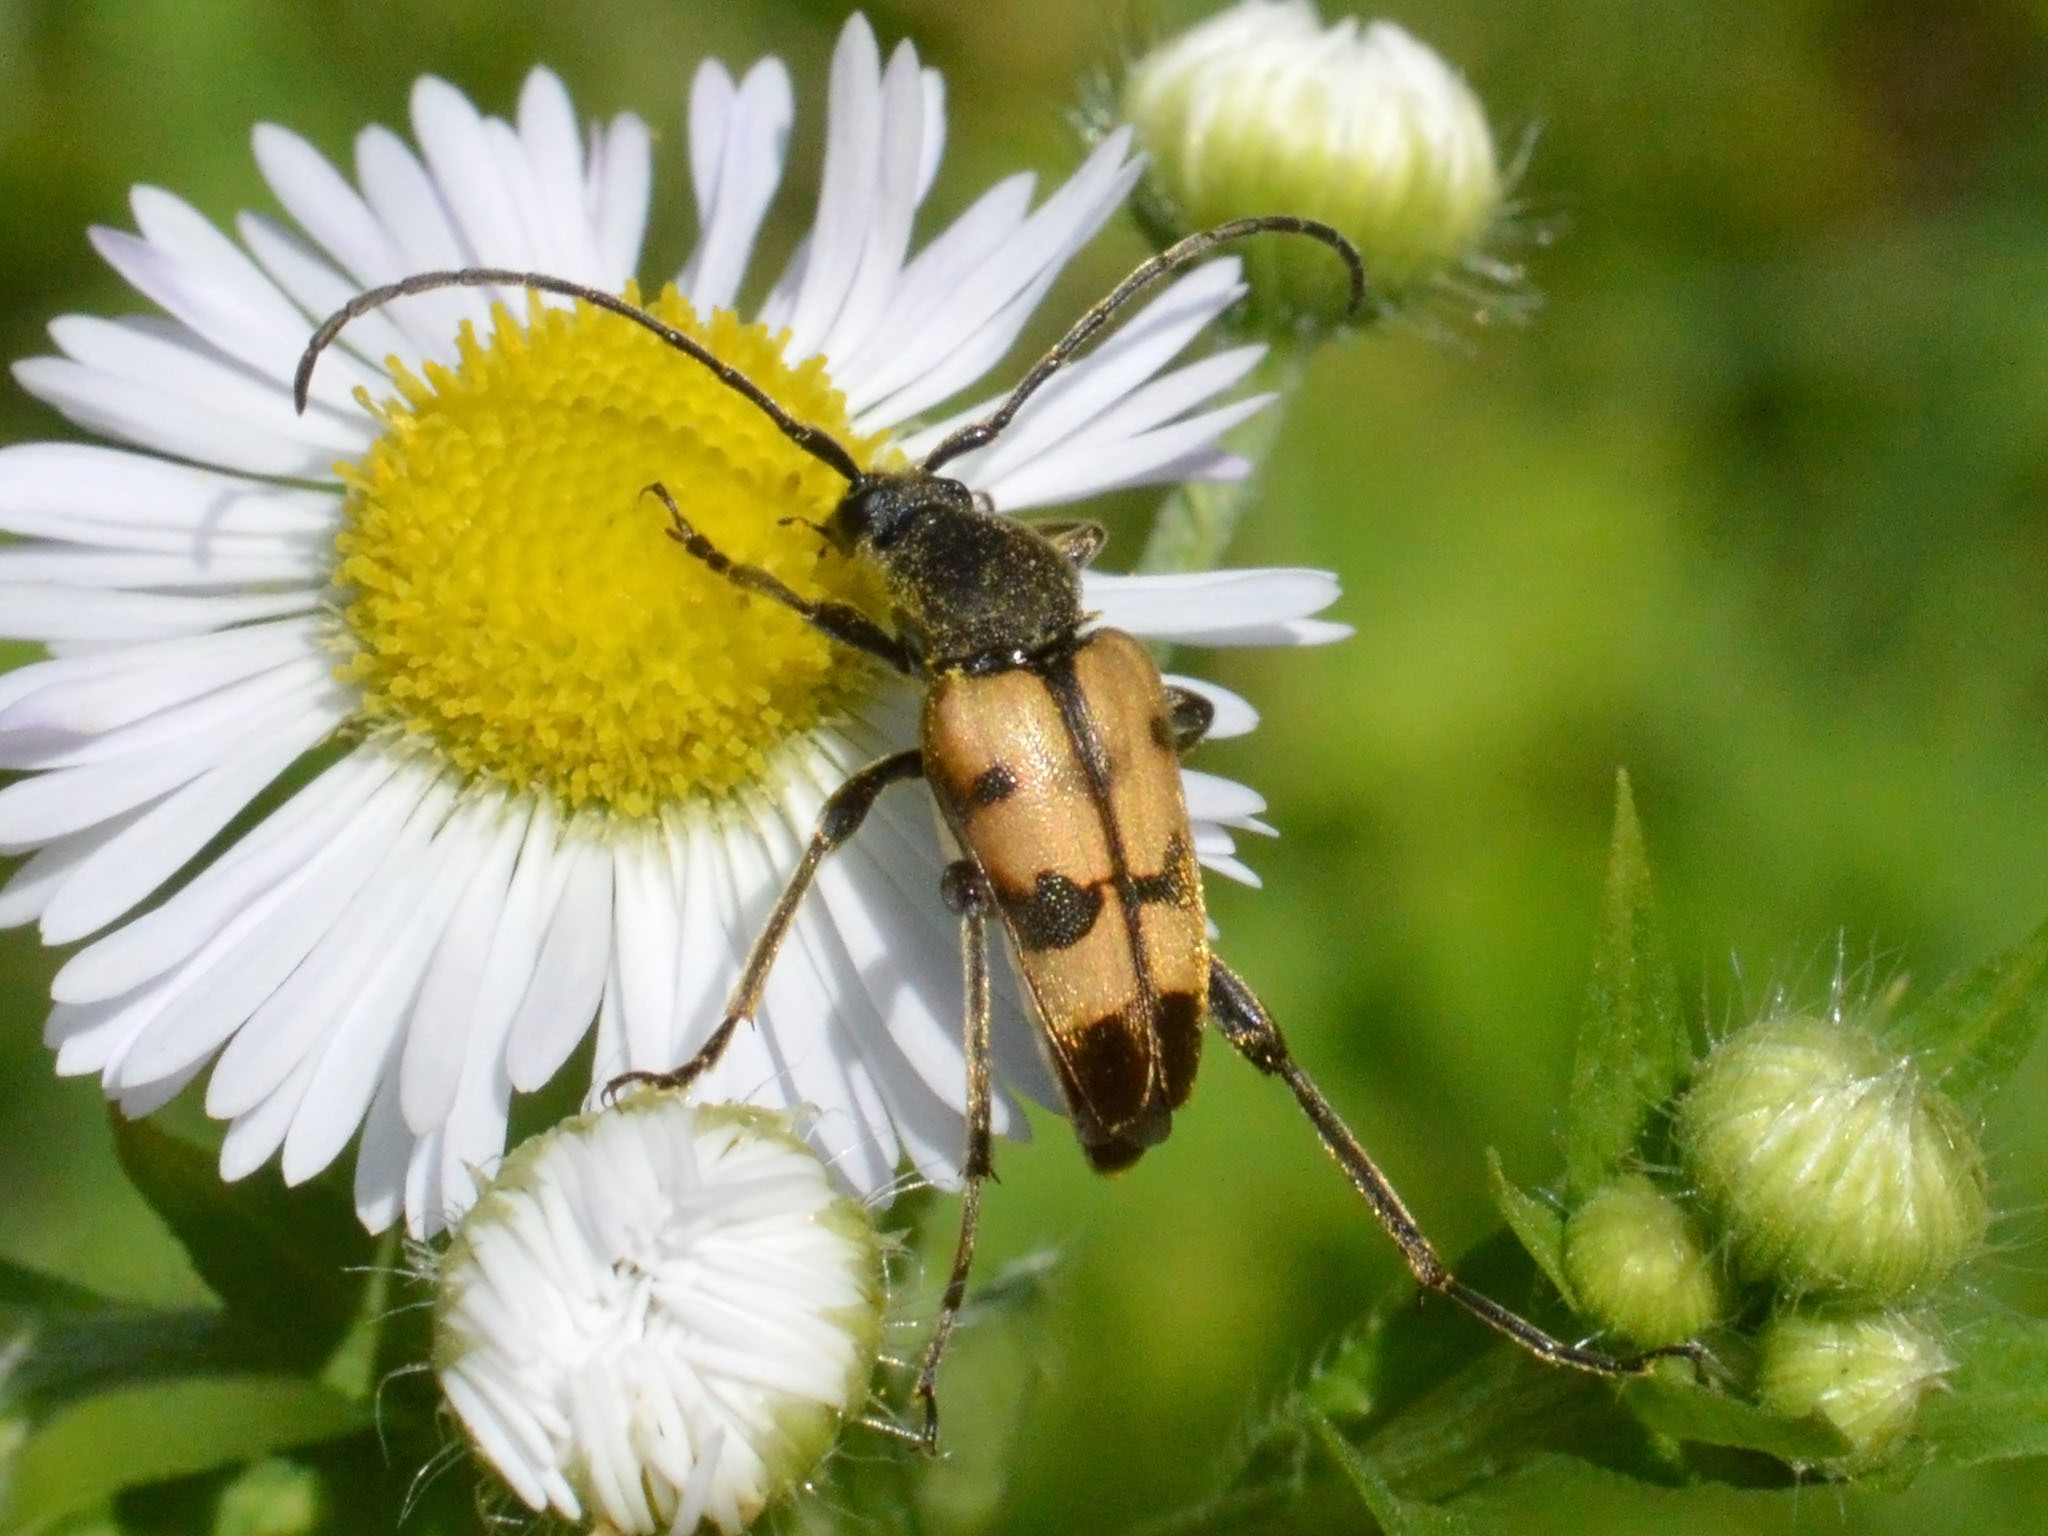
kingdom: Animalia
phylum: Arthropoda
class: Insecta
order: Coleoptera
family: Cerambycidae
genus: Pachytodes
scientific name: Pachytodes
